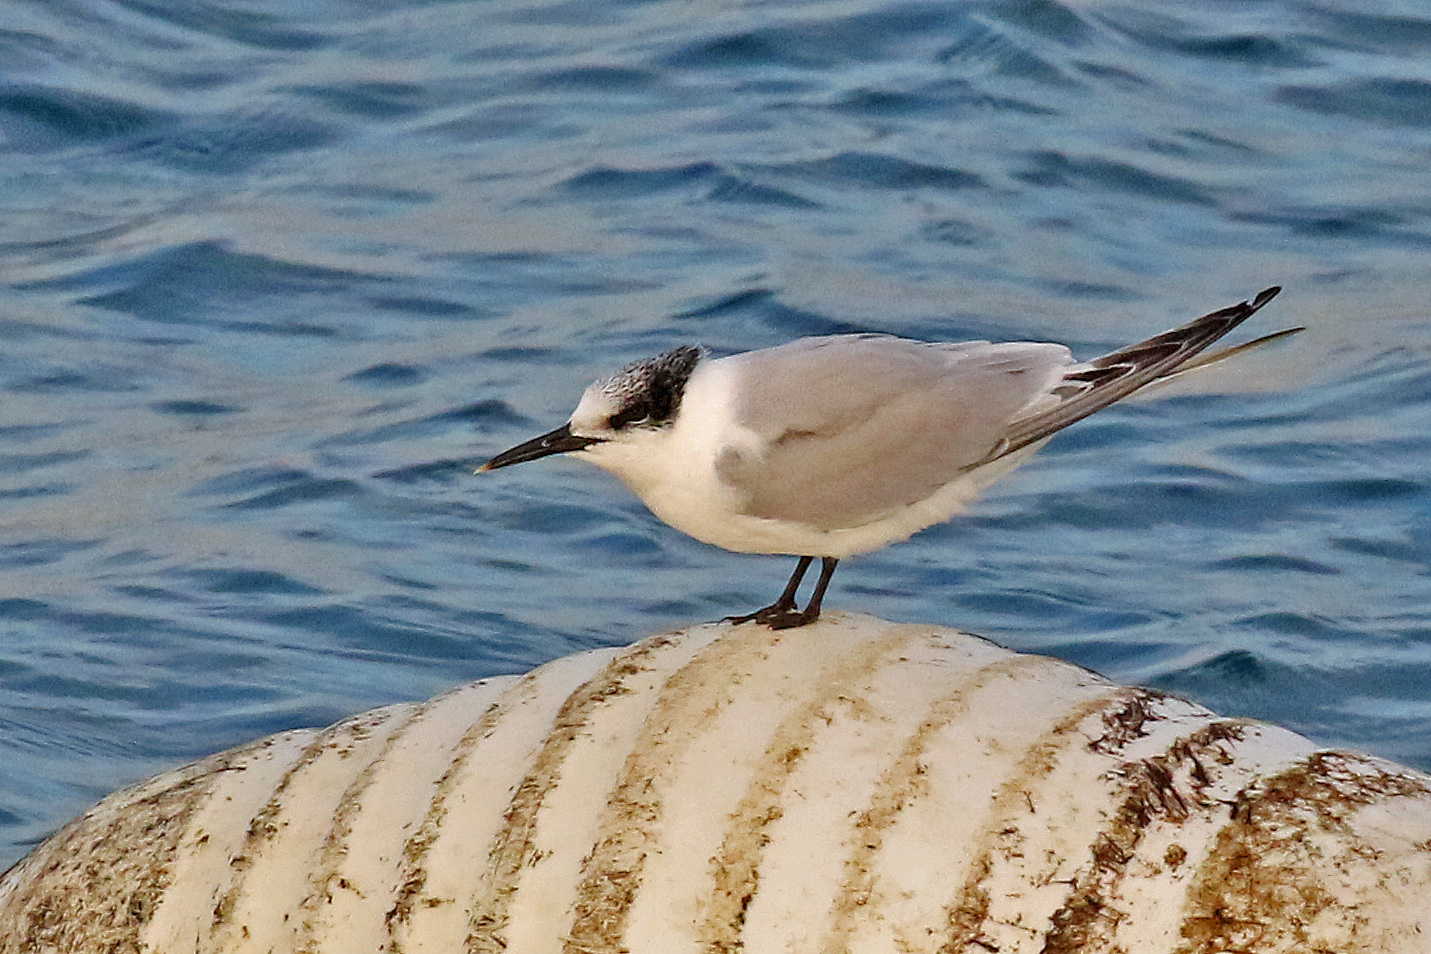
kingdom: Animalia
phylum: Chordata
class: Aves
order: Charadriiformes
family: Laridae
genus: Thalasseus
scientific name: Thalasseus sandvicensis
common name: Sandwich tern
